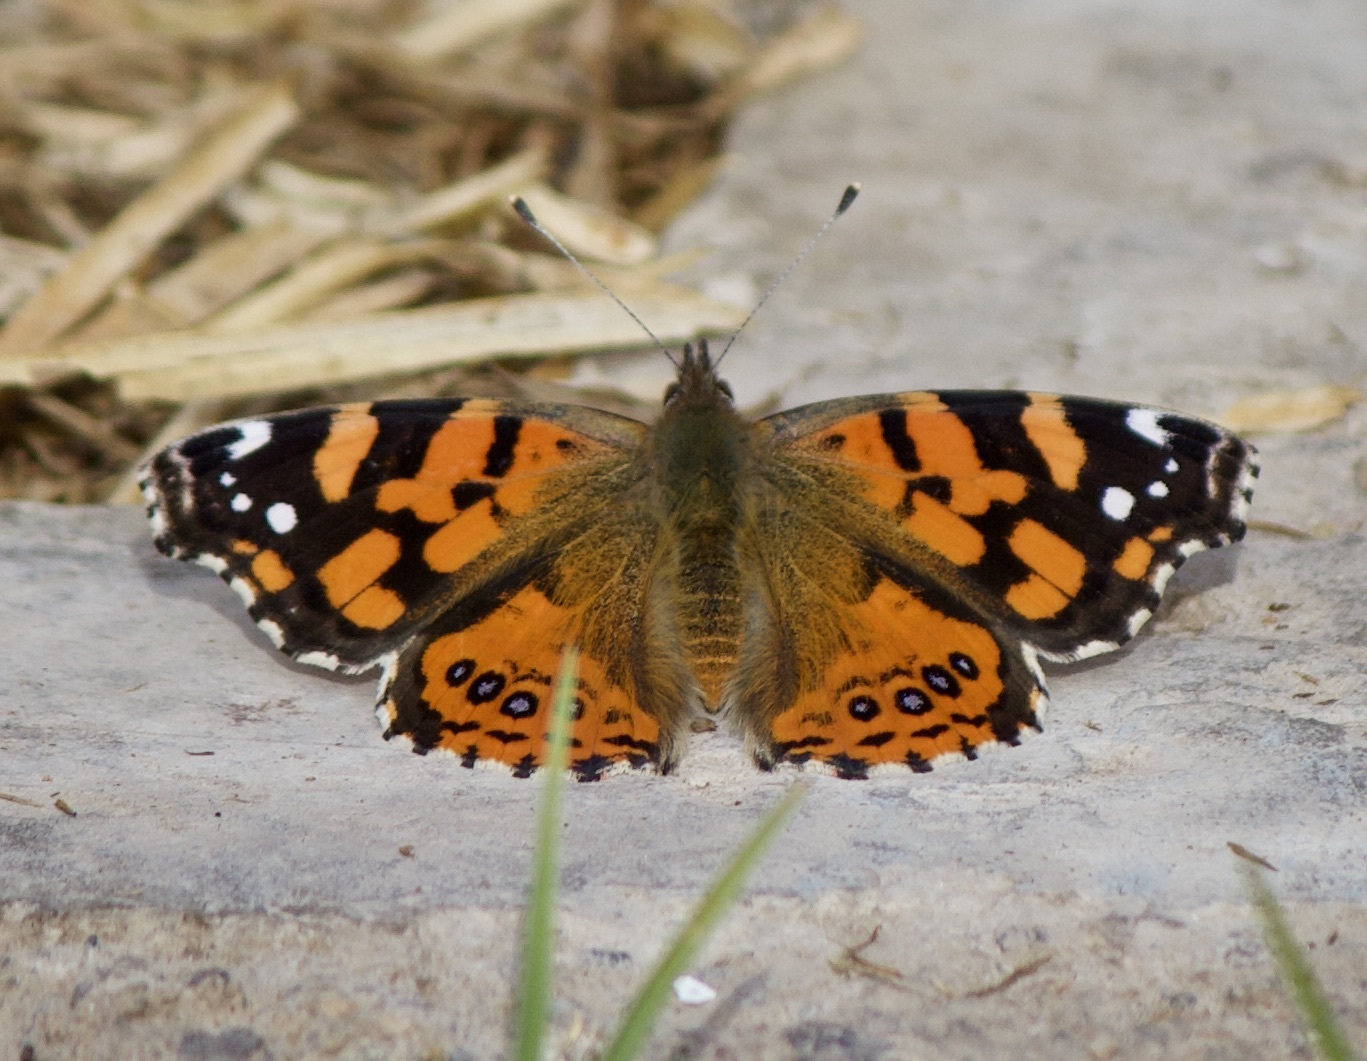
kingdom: Animalia
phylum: Arthropoda
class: Insecta
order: Lepidoptera
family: Nymphalidae
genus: Vanessa
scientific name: Vanessa carye
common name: Subtropical lady
